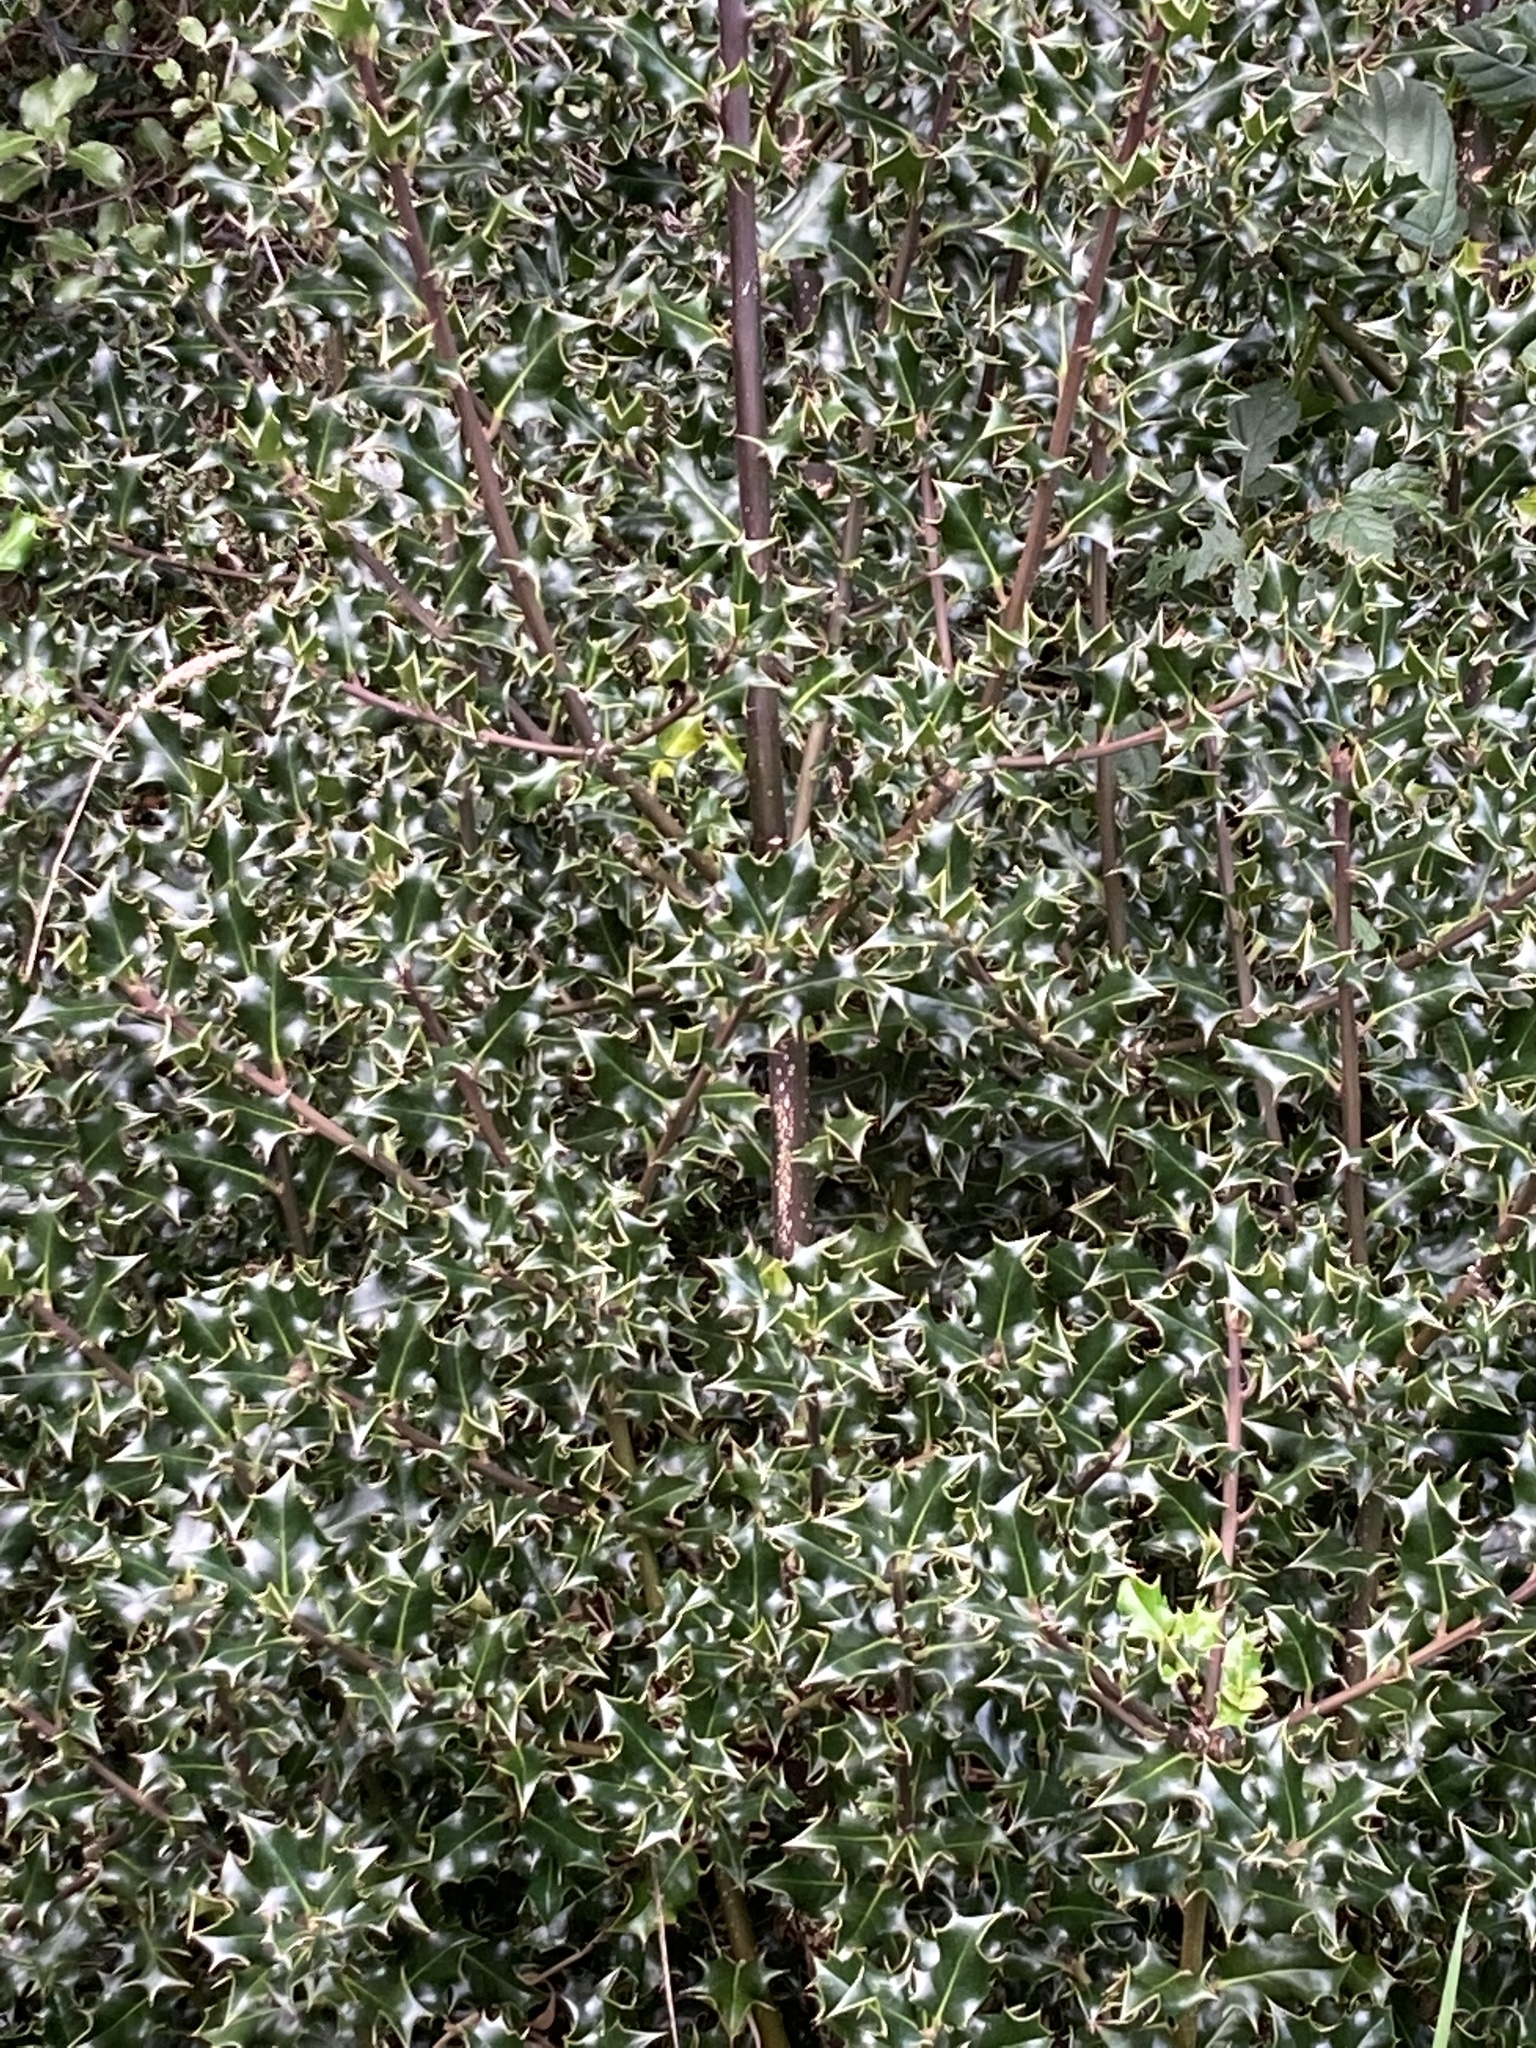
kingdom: Plantae
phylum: Tracheophyta
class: Magnoliopsida
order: Aquifoliales
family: Aquifoliaceae
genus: Ilex
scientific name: Ilex aquifolium
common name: English holly
